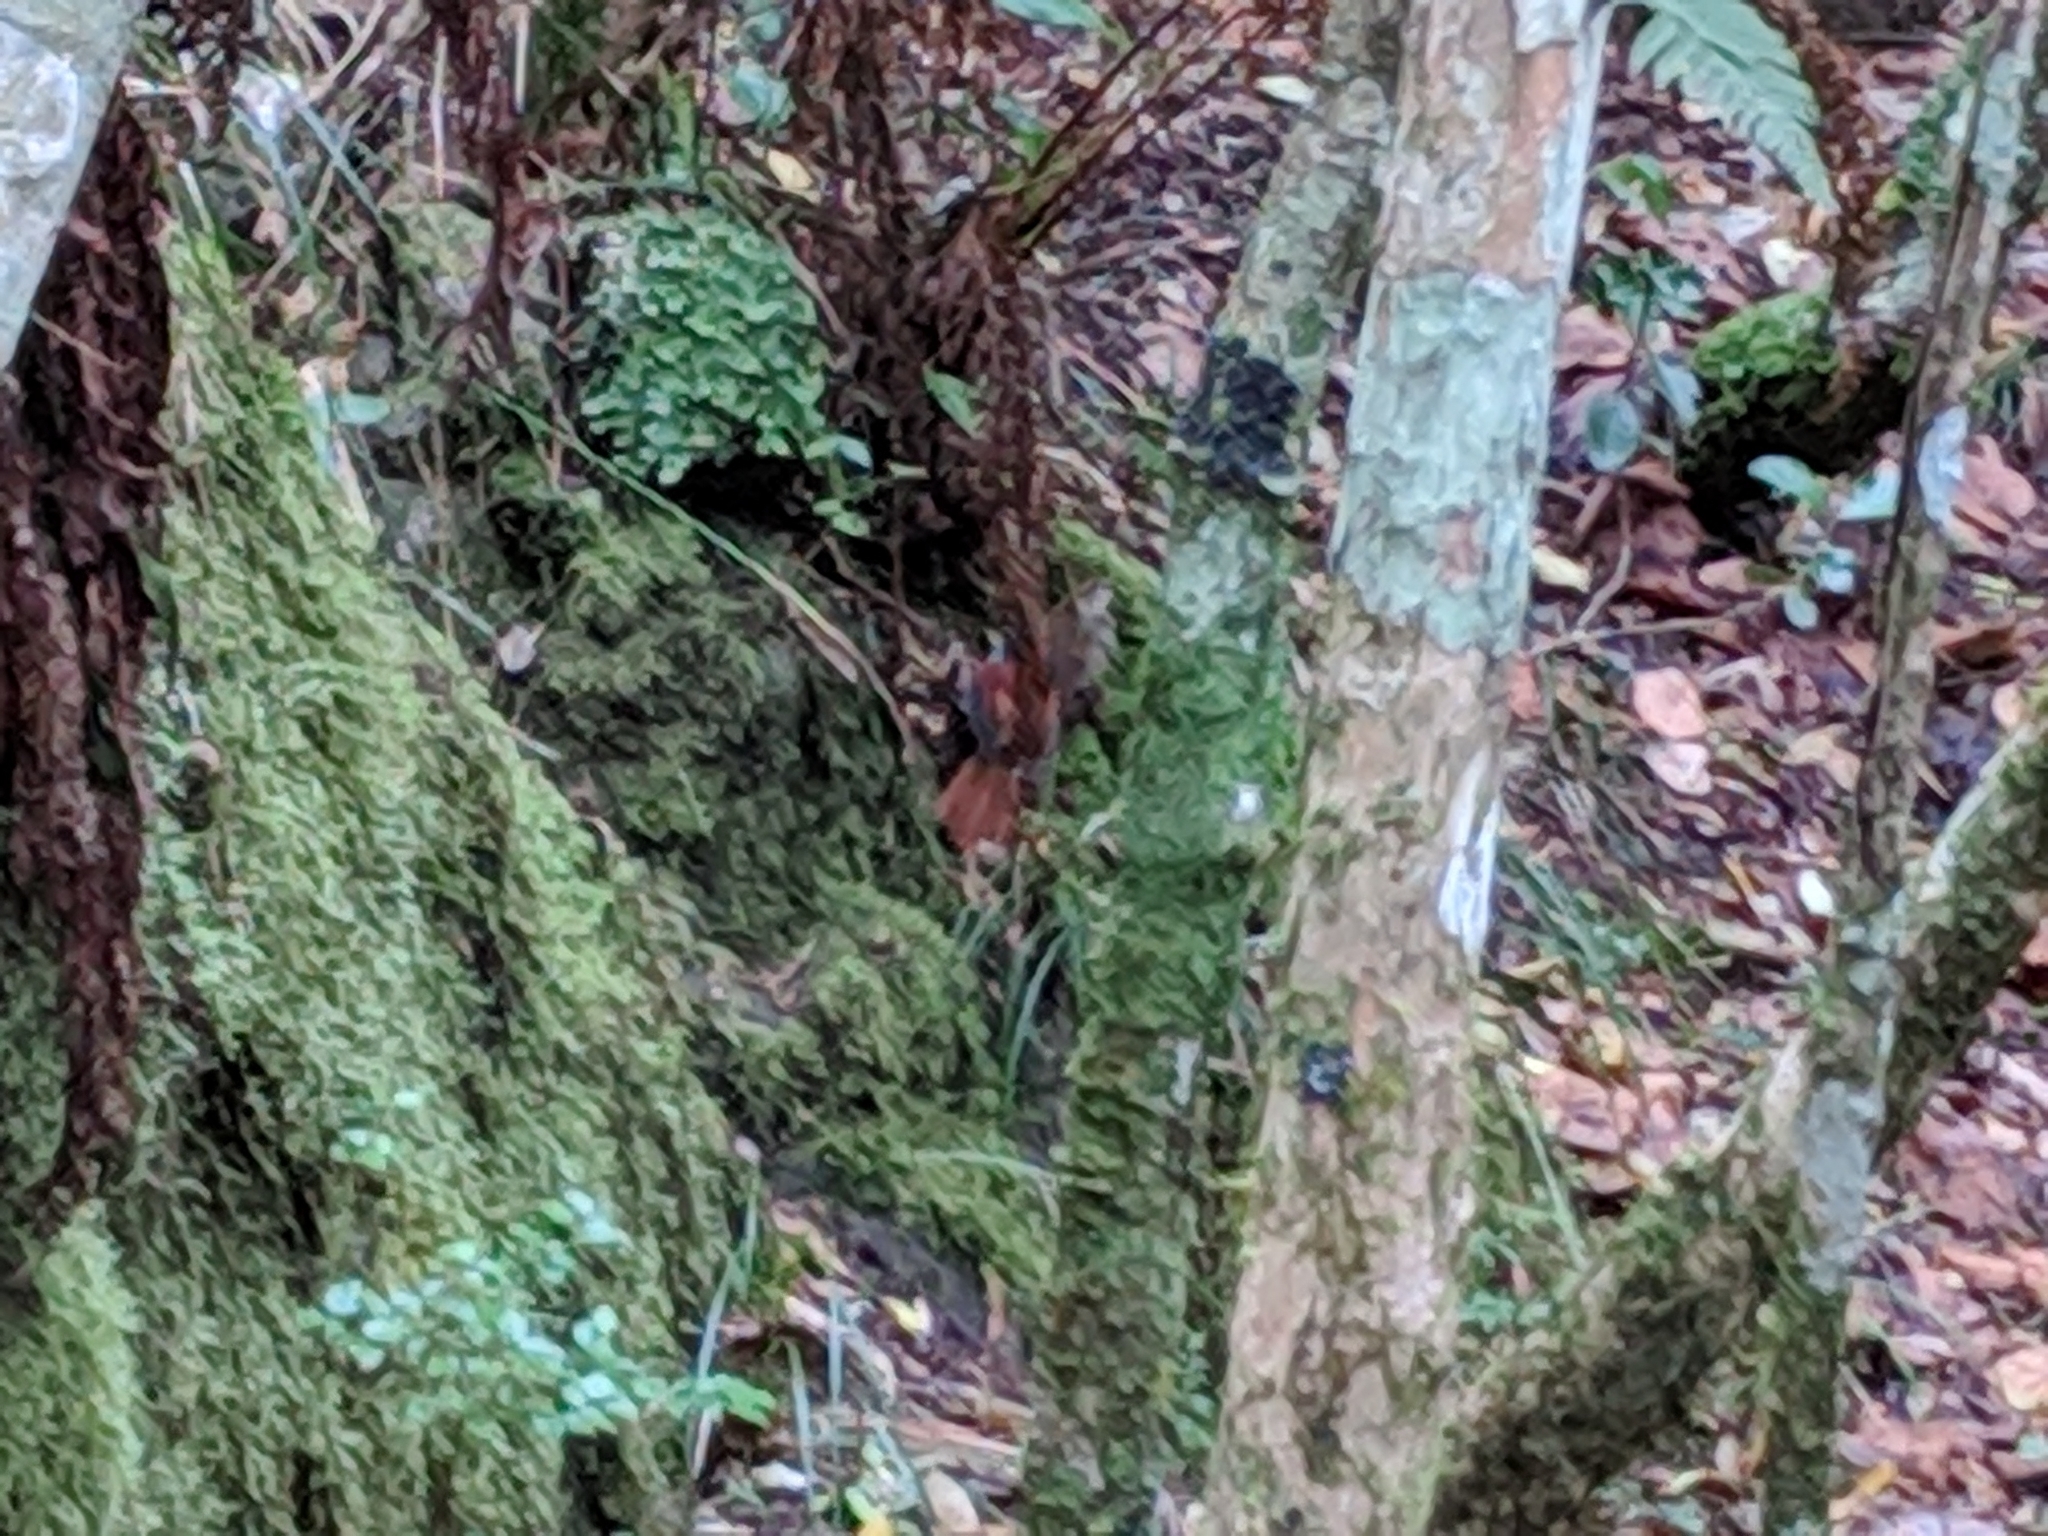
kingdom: Animalia
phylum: Chordata
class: Aves
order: Passeriformes
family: Monarchidae
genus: Terpsiphone
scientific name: Terpsiphone bourbonnensis
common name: Mascarene paradise flycatcher
